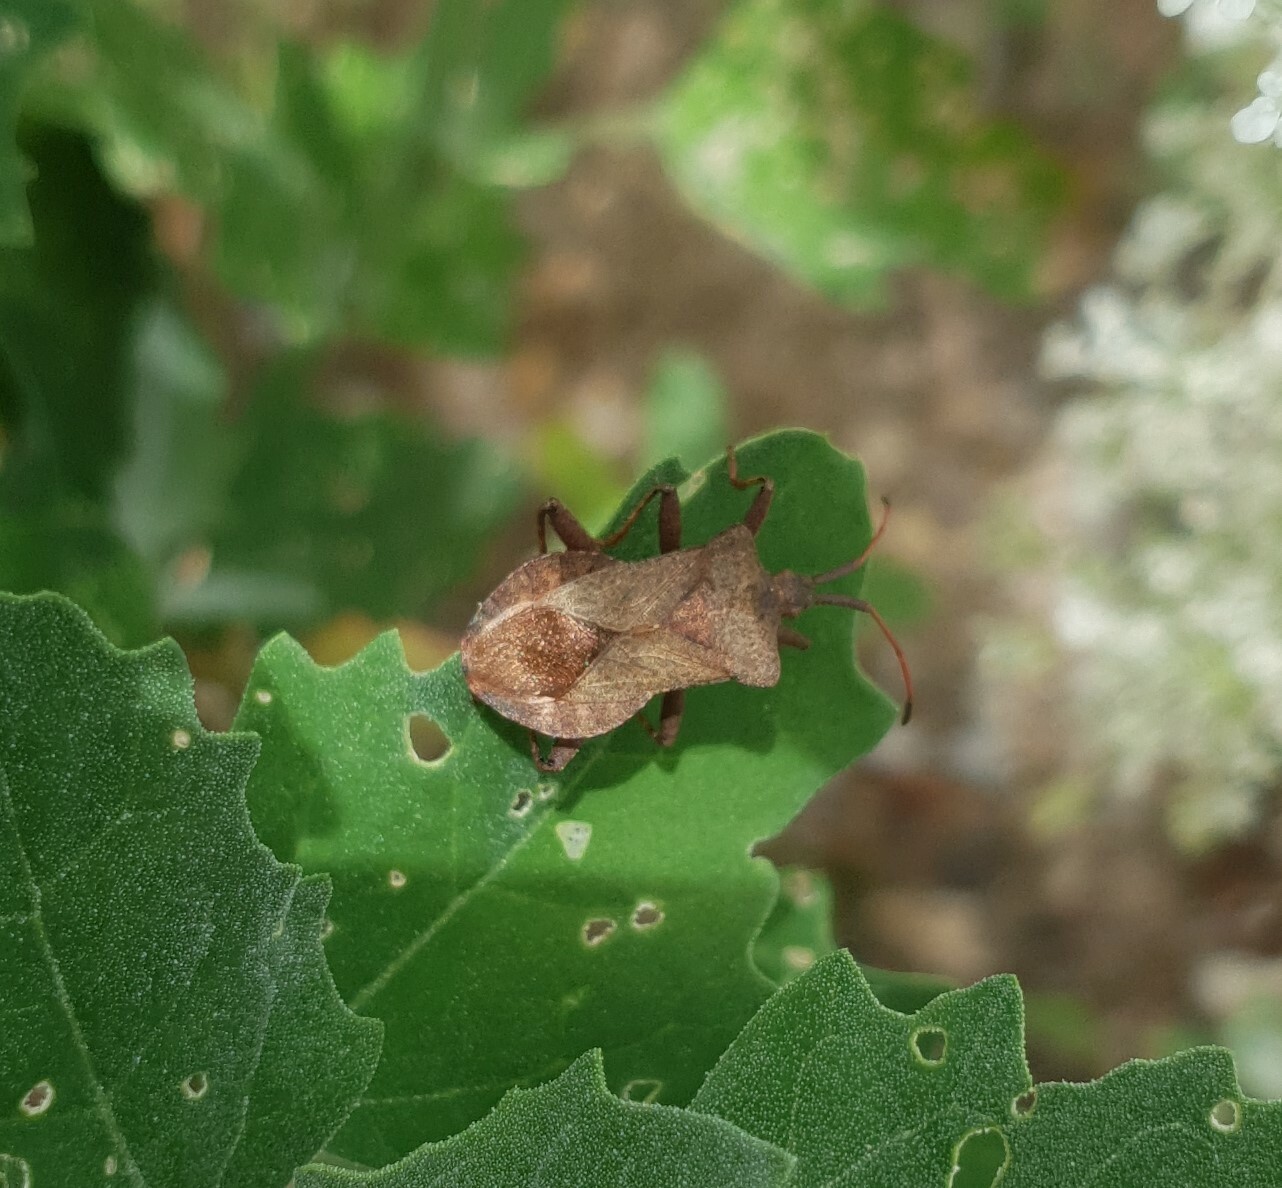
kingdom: Animalia
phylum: Arthropoda
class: Insecta
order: Hemiptera
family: Coreidae
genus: Coreus
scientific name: Coreus marginatus
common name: Dock bug
